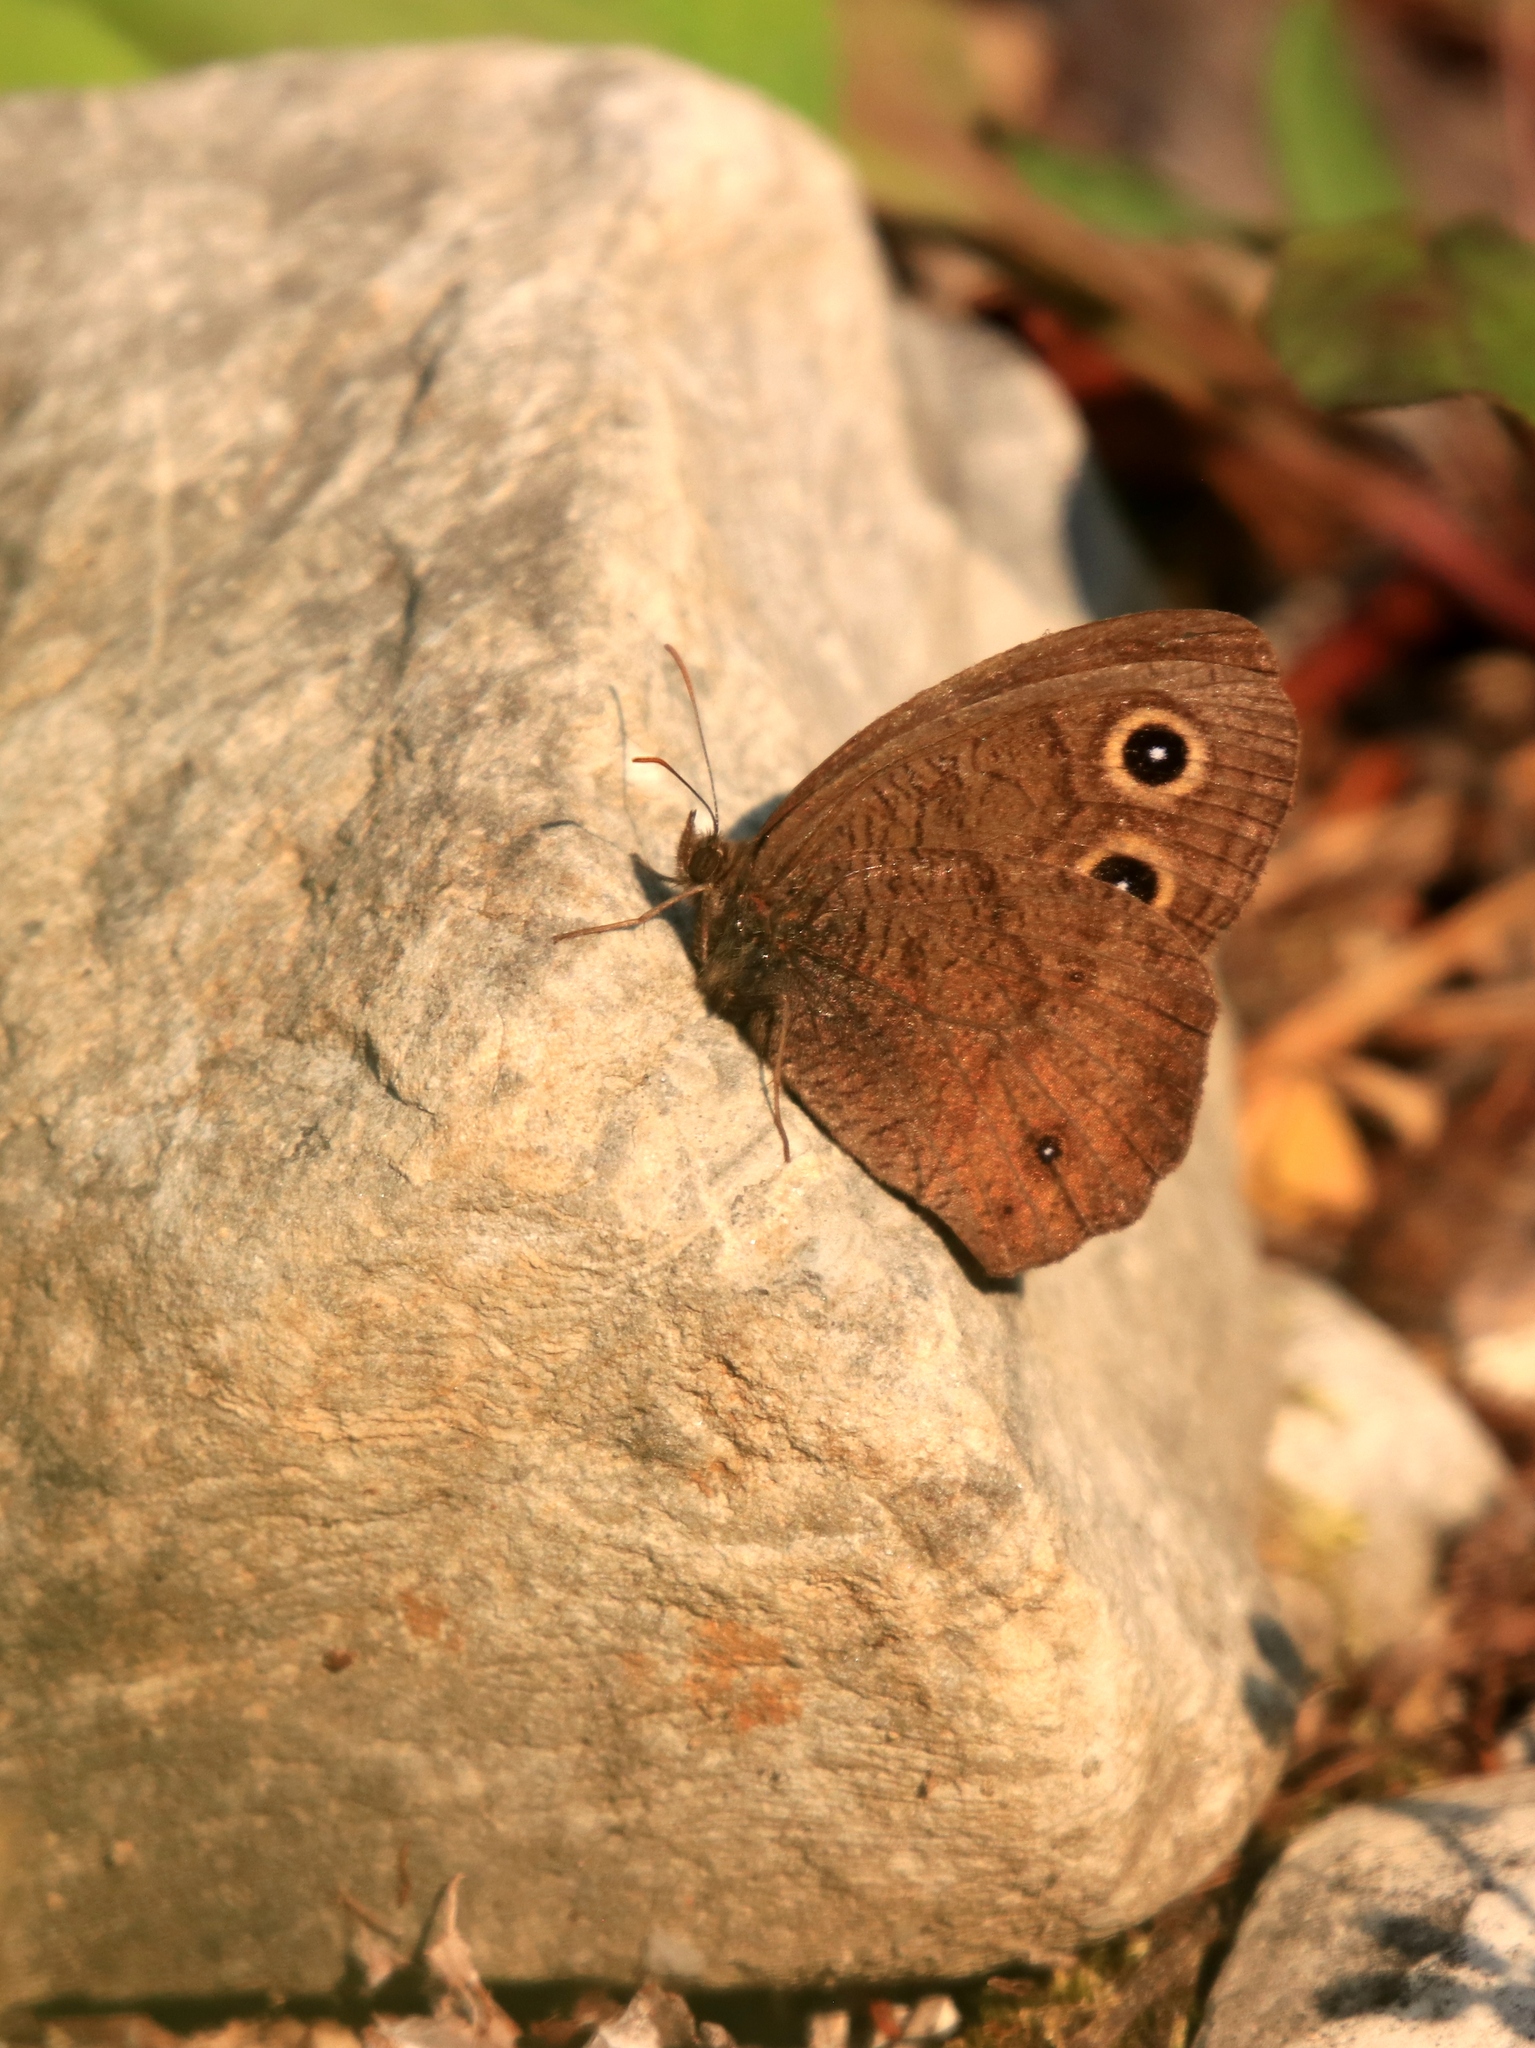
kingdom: Animalia
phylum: Arthropoda
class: Insecta
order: Lepidoptera
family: Nymphalidae
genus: Cercyonis
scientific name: Cercyonis pegala
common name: Common wood-nymph
